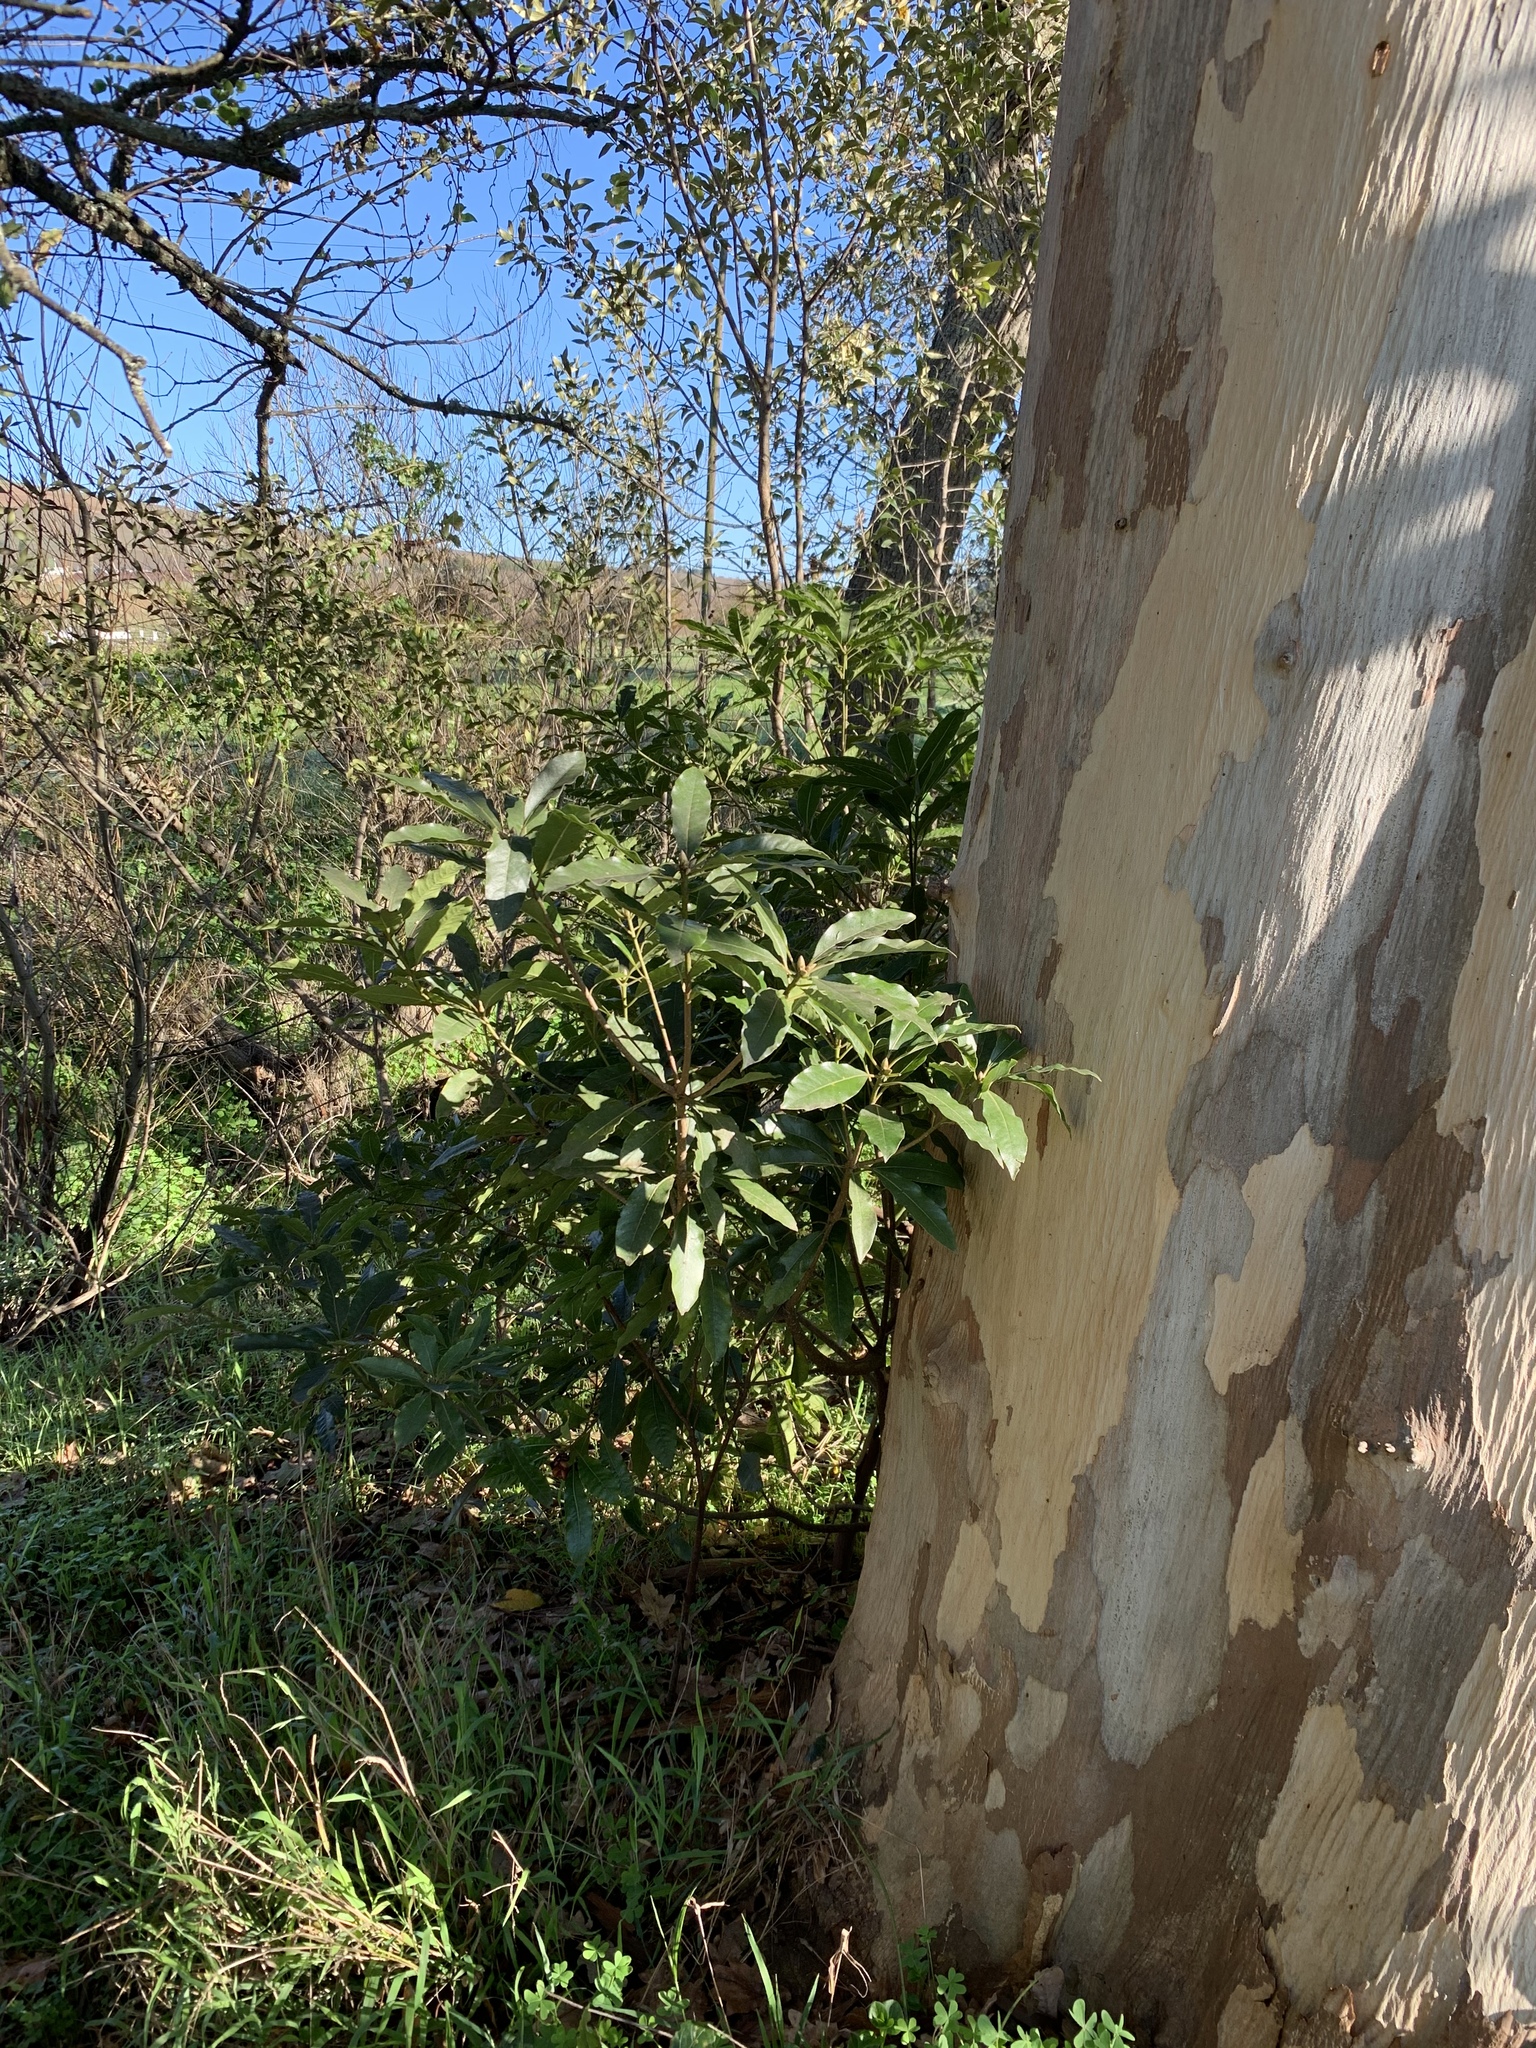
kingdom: Plantae
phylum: Tracheophyta
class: Magnoliopsida
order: Apiales
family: Pittosporaceae
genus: Pittosporum
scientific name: Pittosporum undulatum
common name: Australian cheesewood
